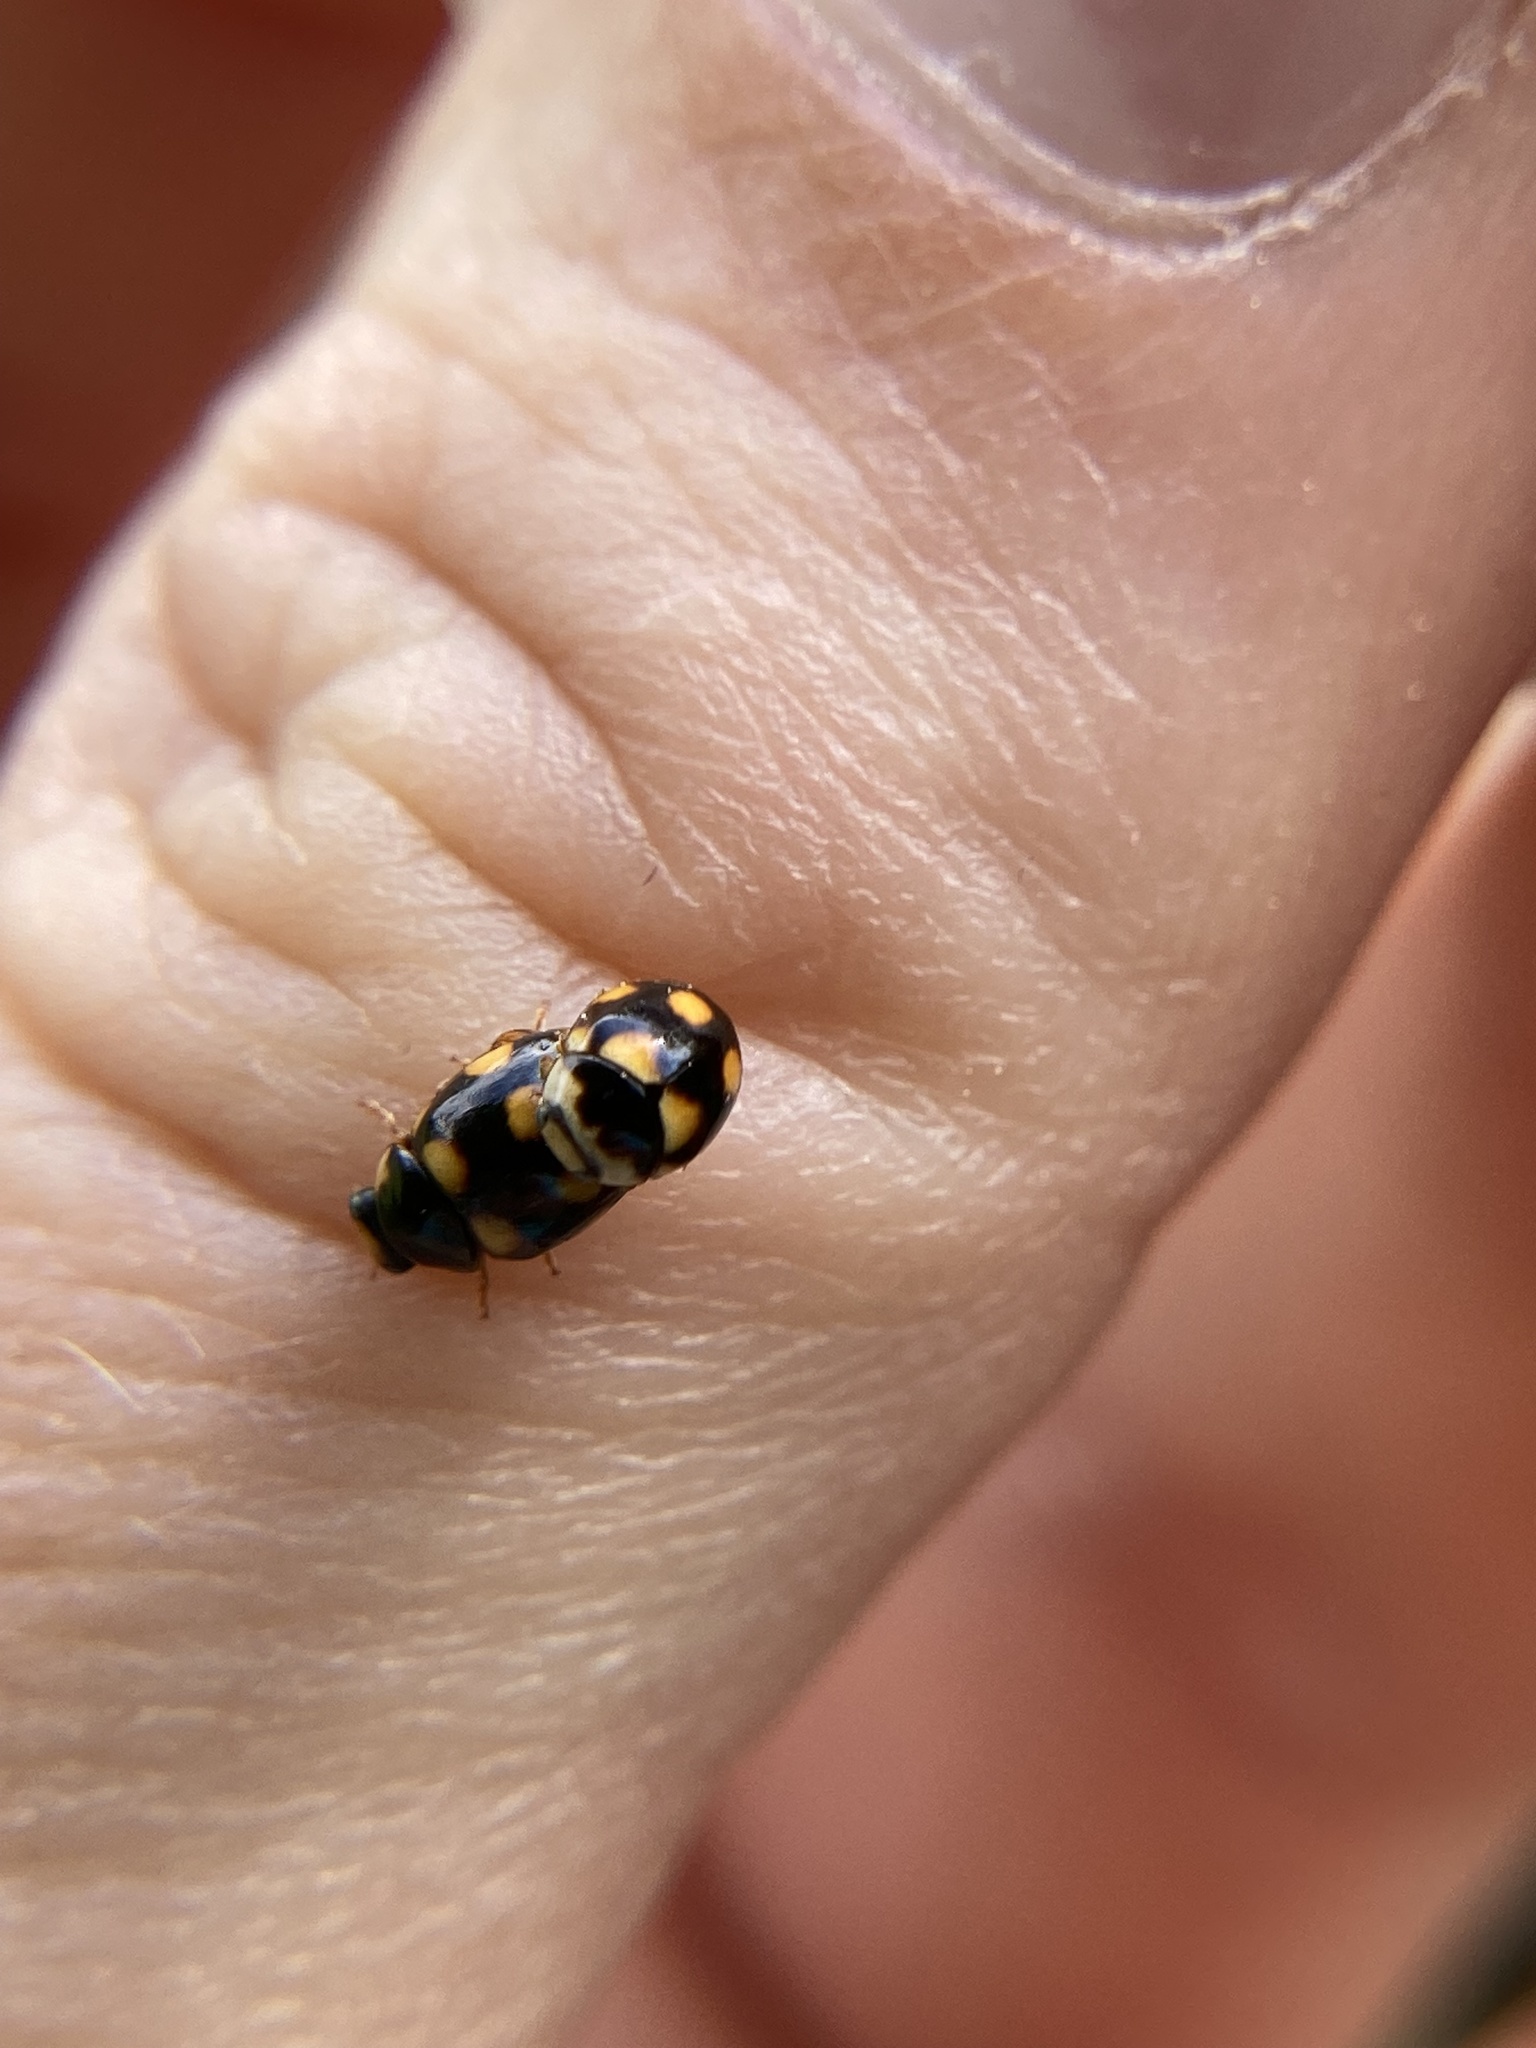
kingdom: Animalia
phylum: Arthropoda
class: Insecta
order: Coleoptera
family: Coccinellidae
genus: Brachiacantha
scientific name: Brachiacantha ursina
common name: Ursine spurleg lady beetle
